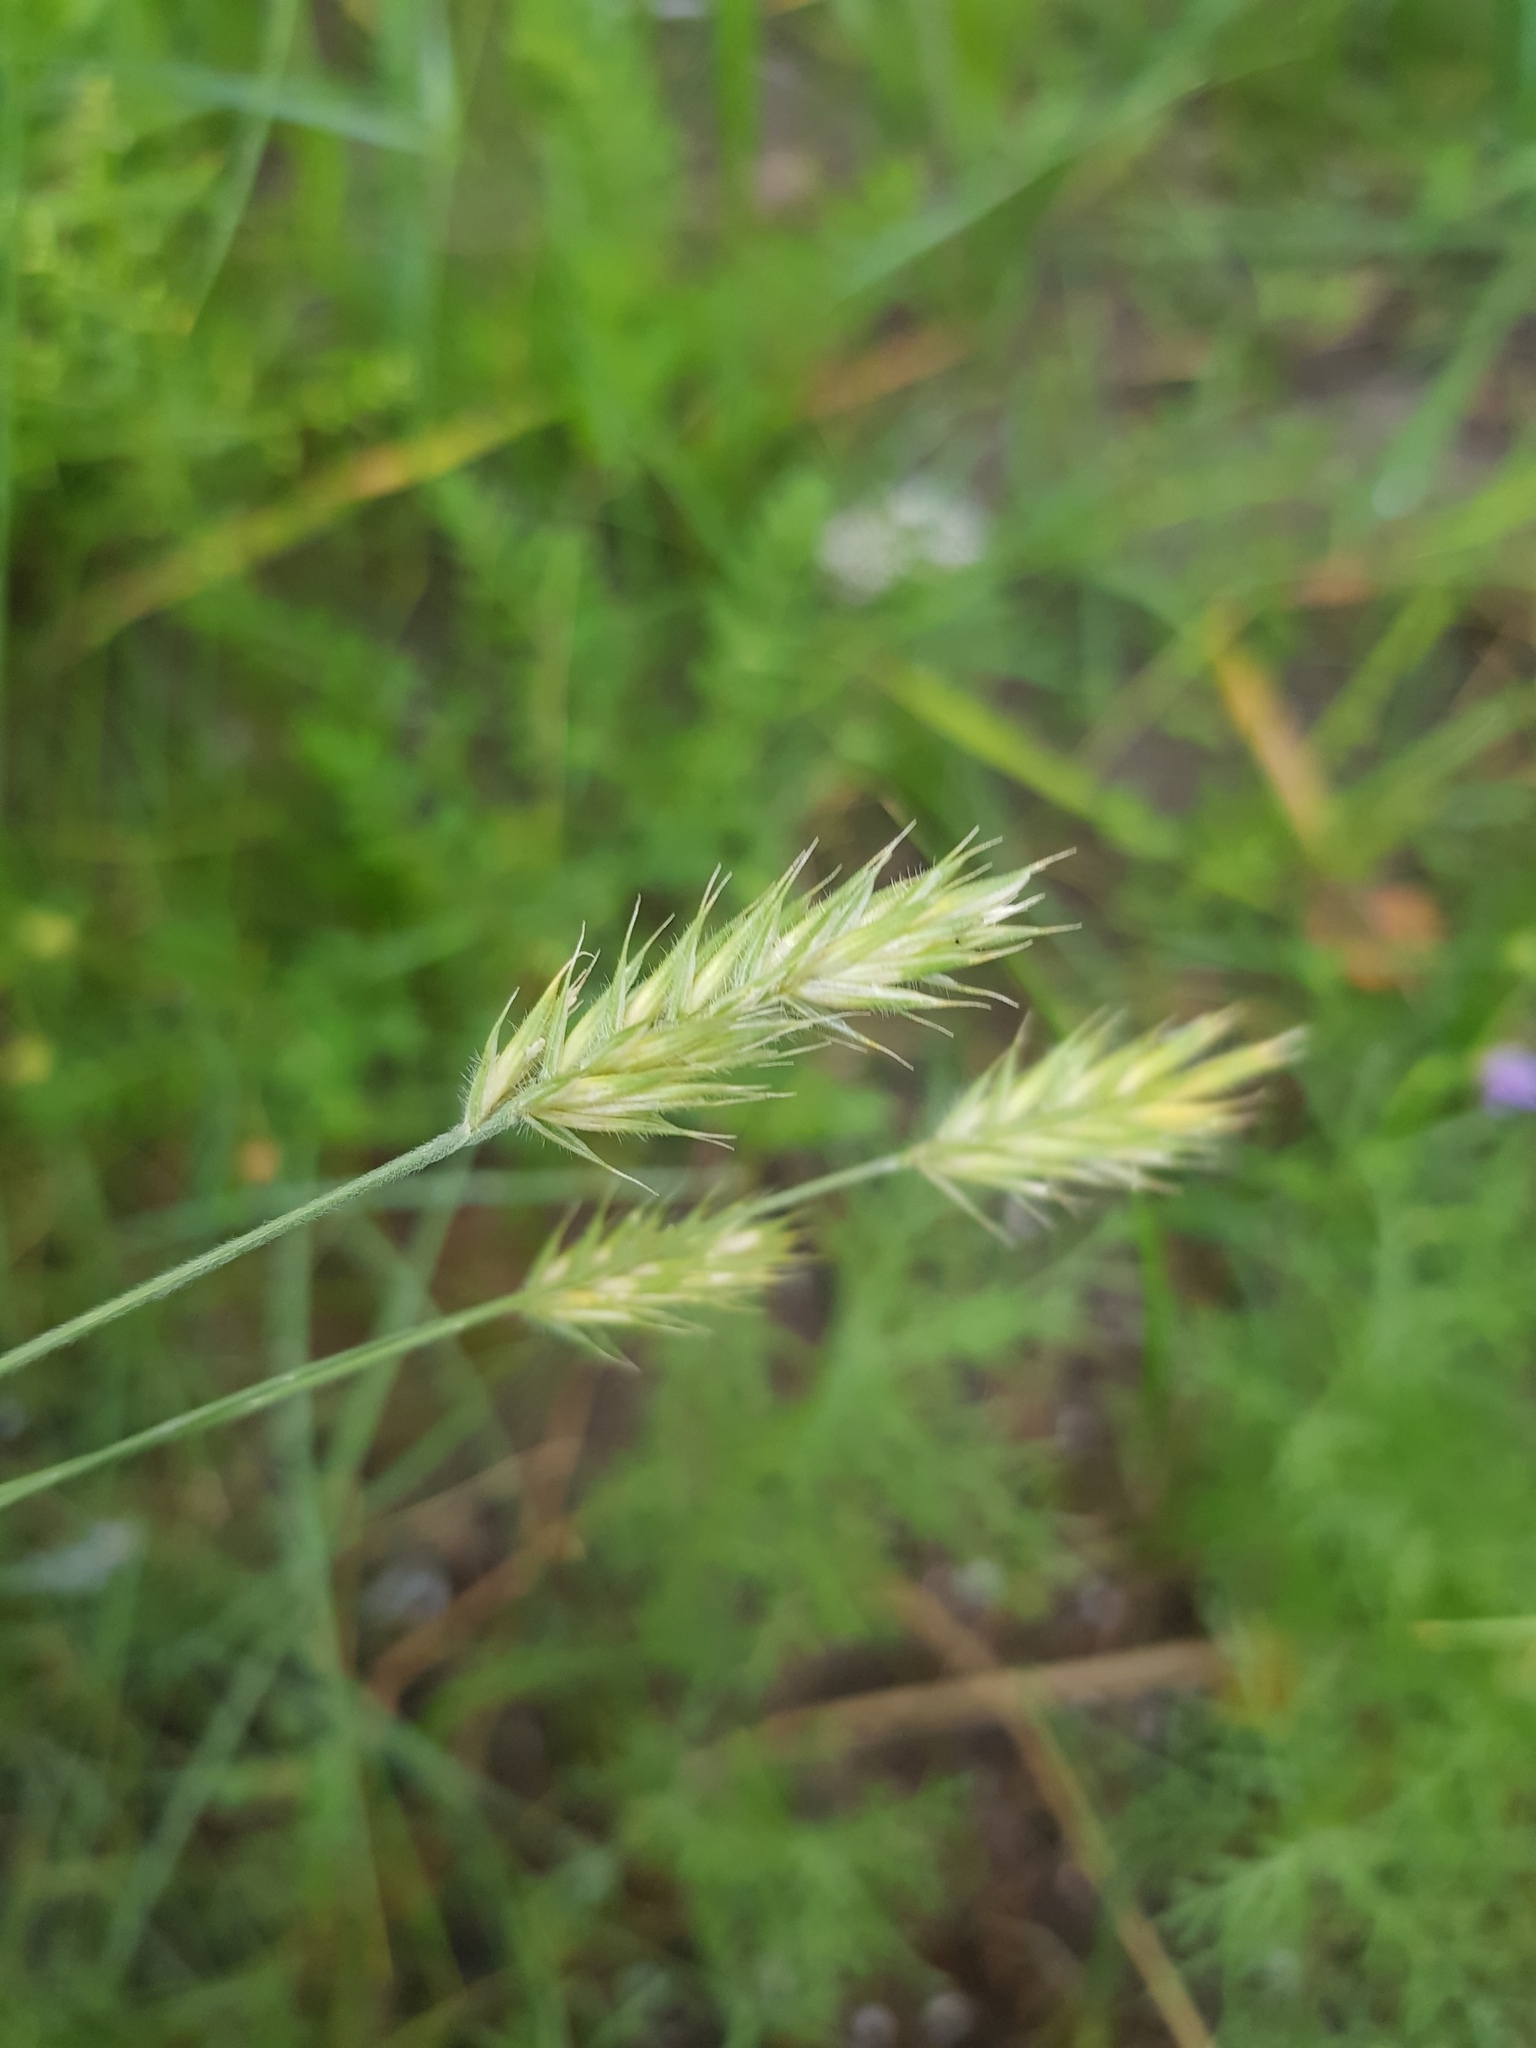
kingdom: Plantae
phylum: Tracheophyta
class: Liliopsida
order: Poales
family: Poaceae
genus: Agropyron
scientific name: Agropyron cristatum
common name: Crested wheatgrass
